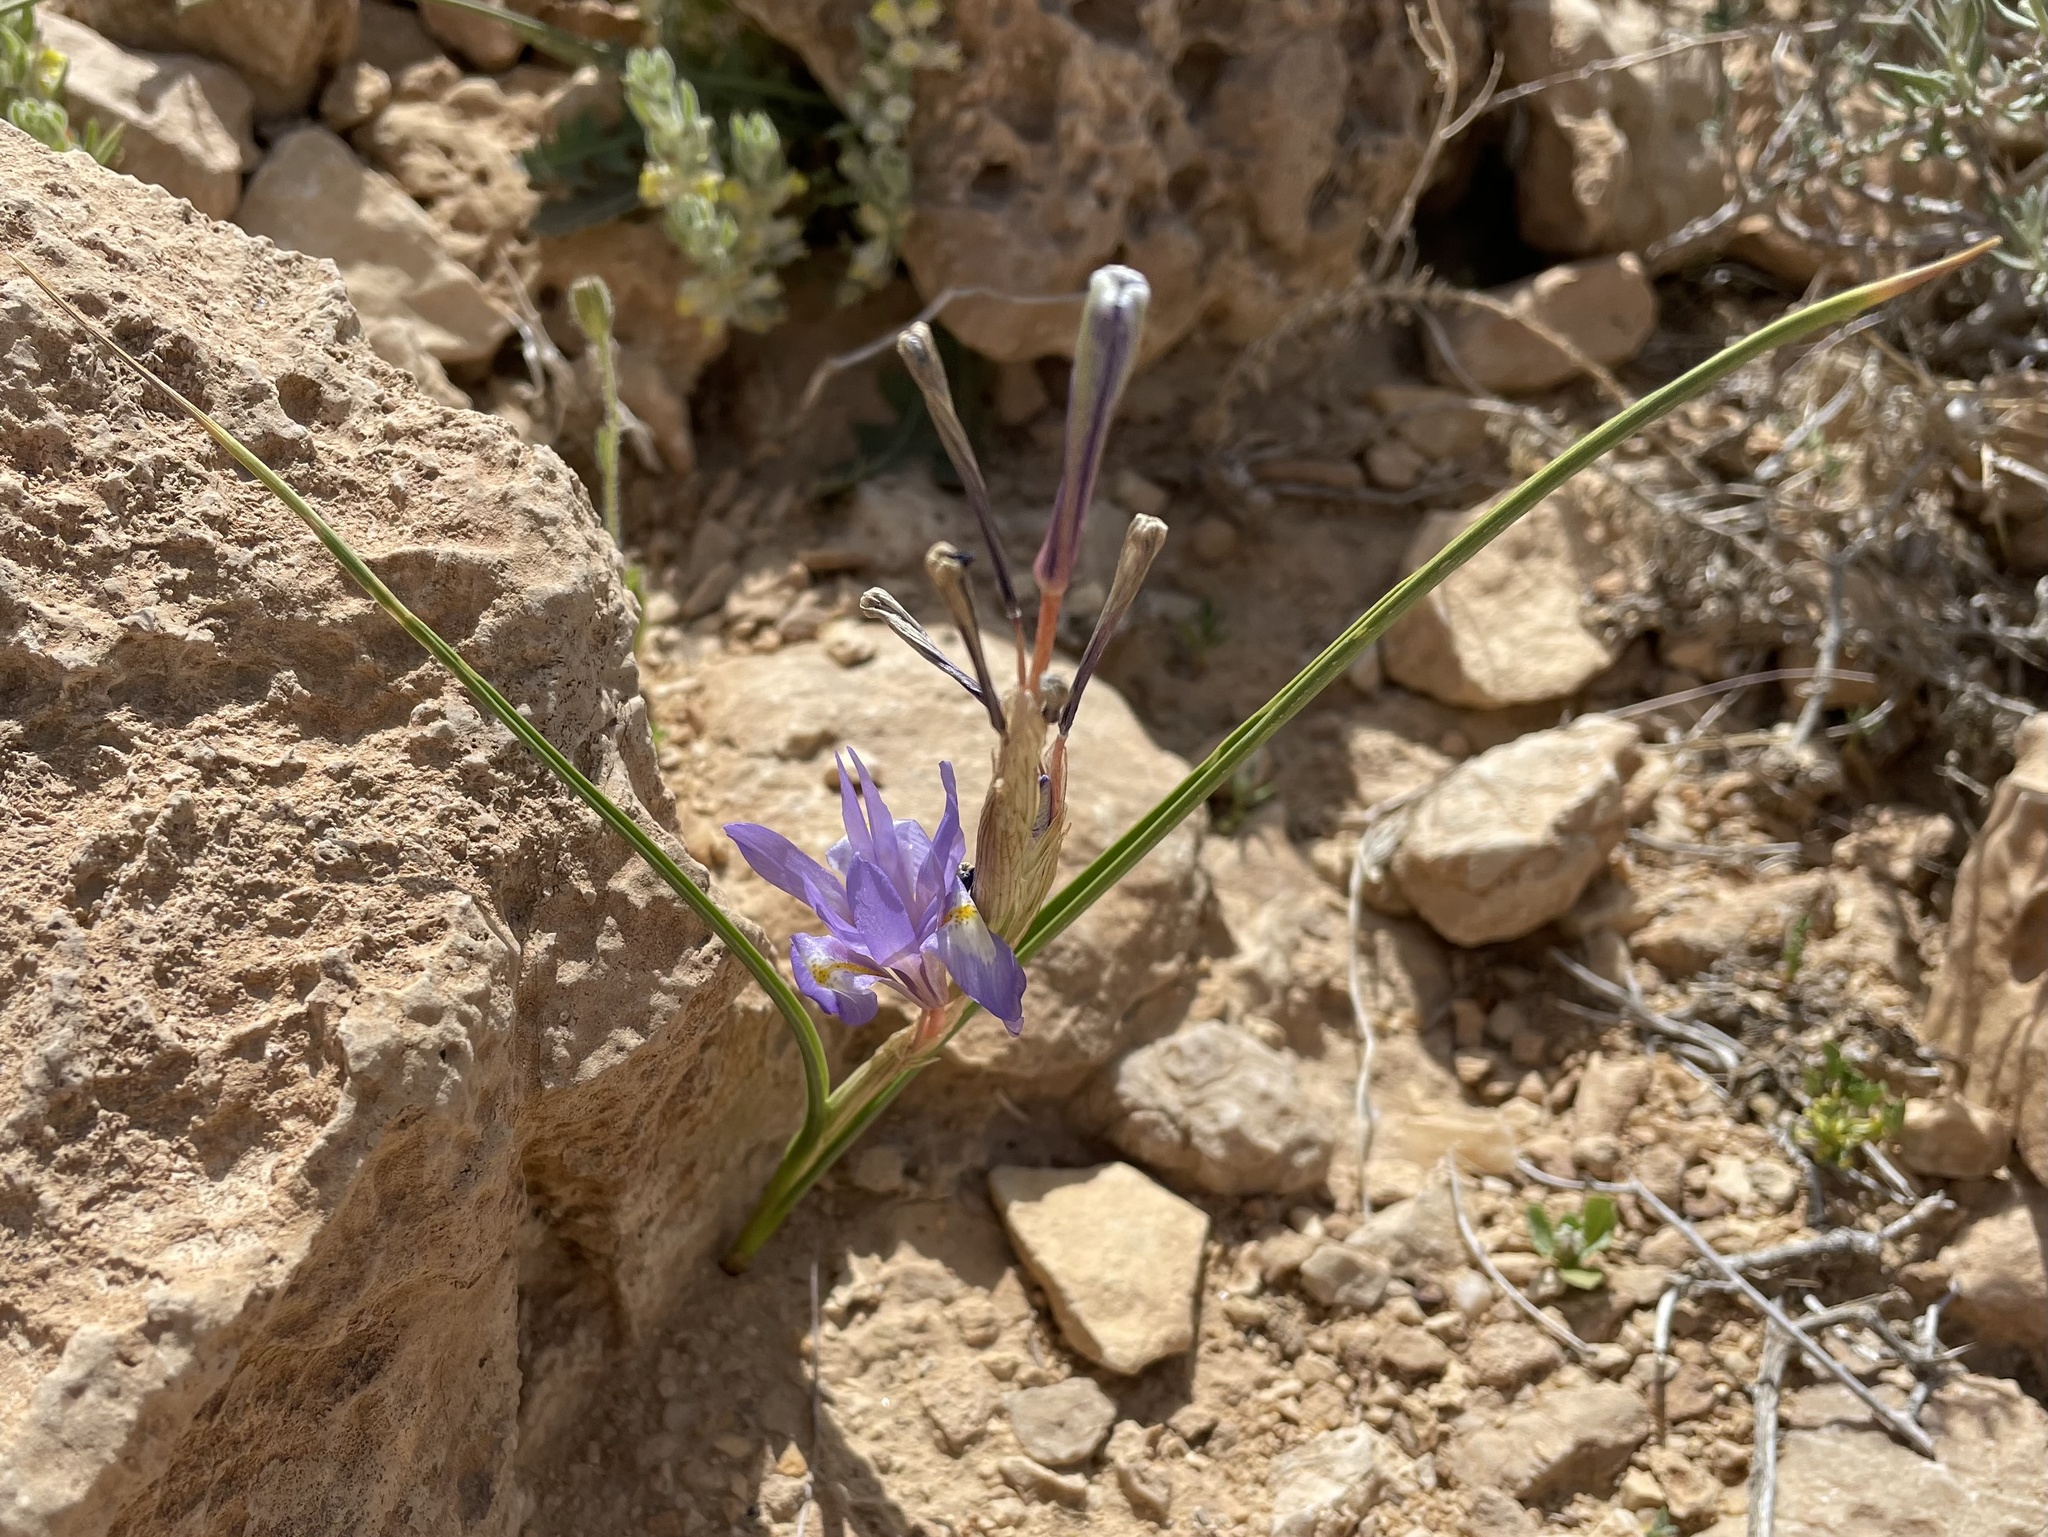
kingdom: Plantae
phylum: Tracheophyta
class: Liliopsida
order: Asparagales
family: Iridaceae
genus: Moraea
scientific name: Moraea sisyrinchium
